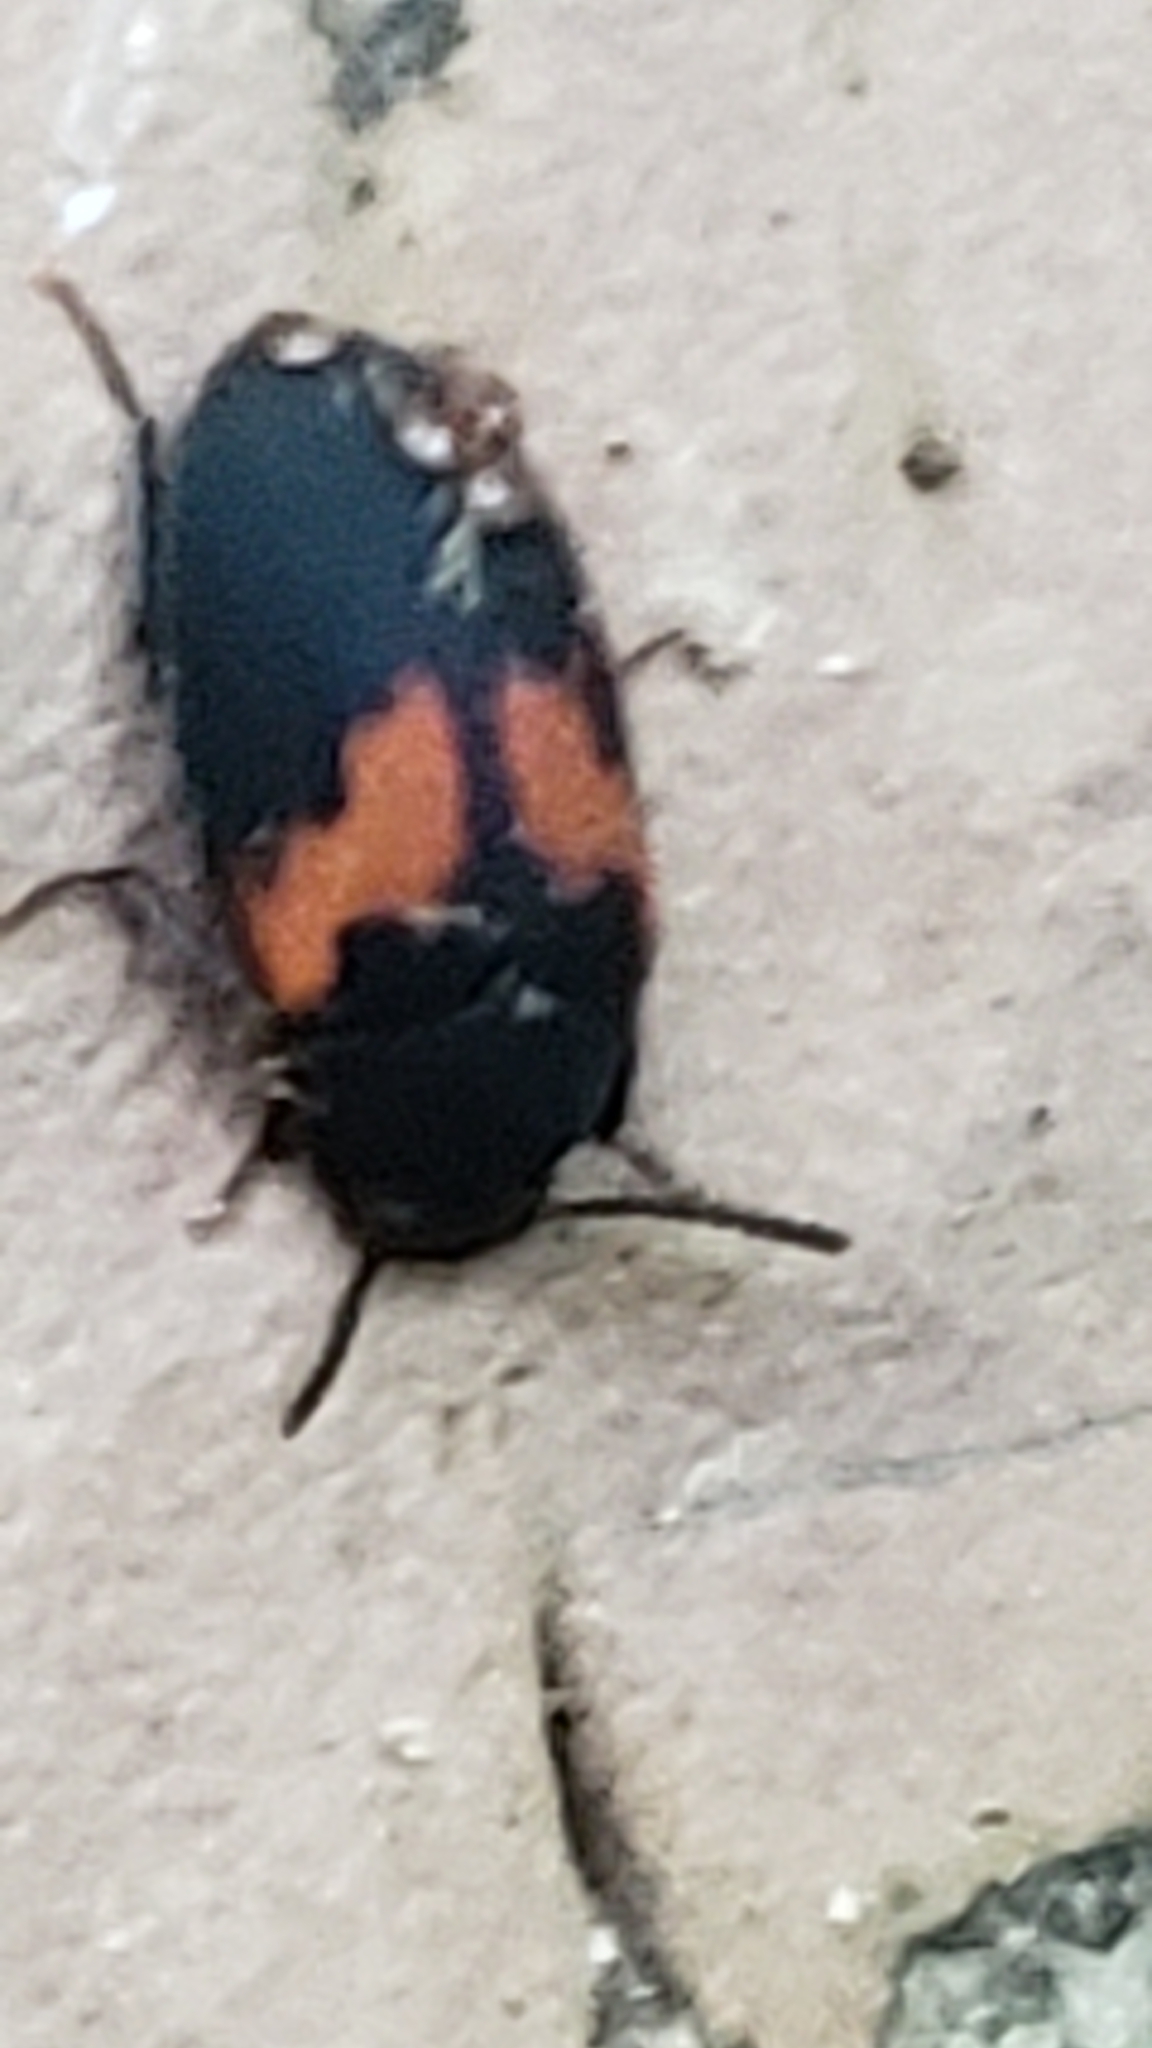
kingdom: Animalia
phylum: Arthropoda
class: Insecta
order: Coleoptera
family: Tenebrionidae
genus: Platydema
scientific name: Platydema elliptica
